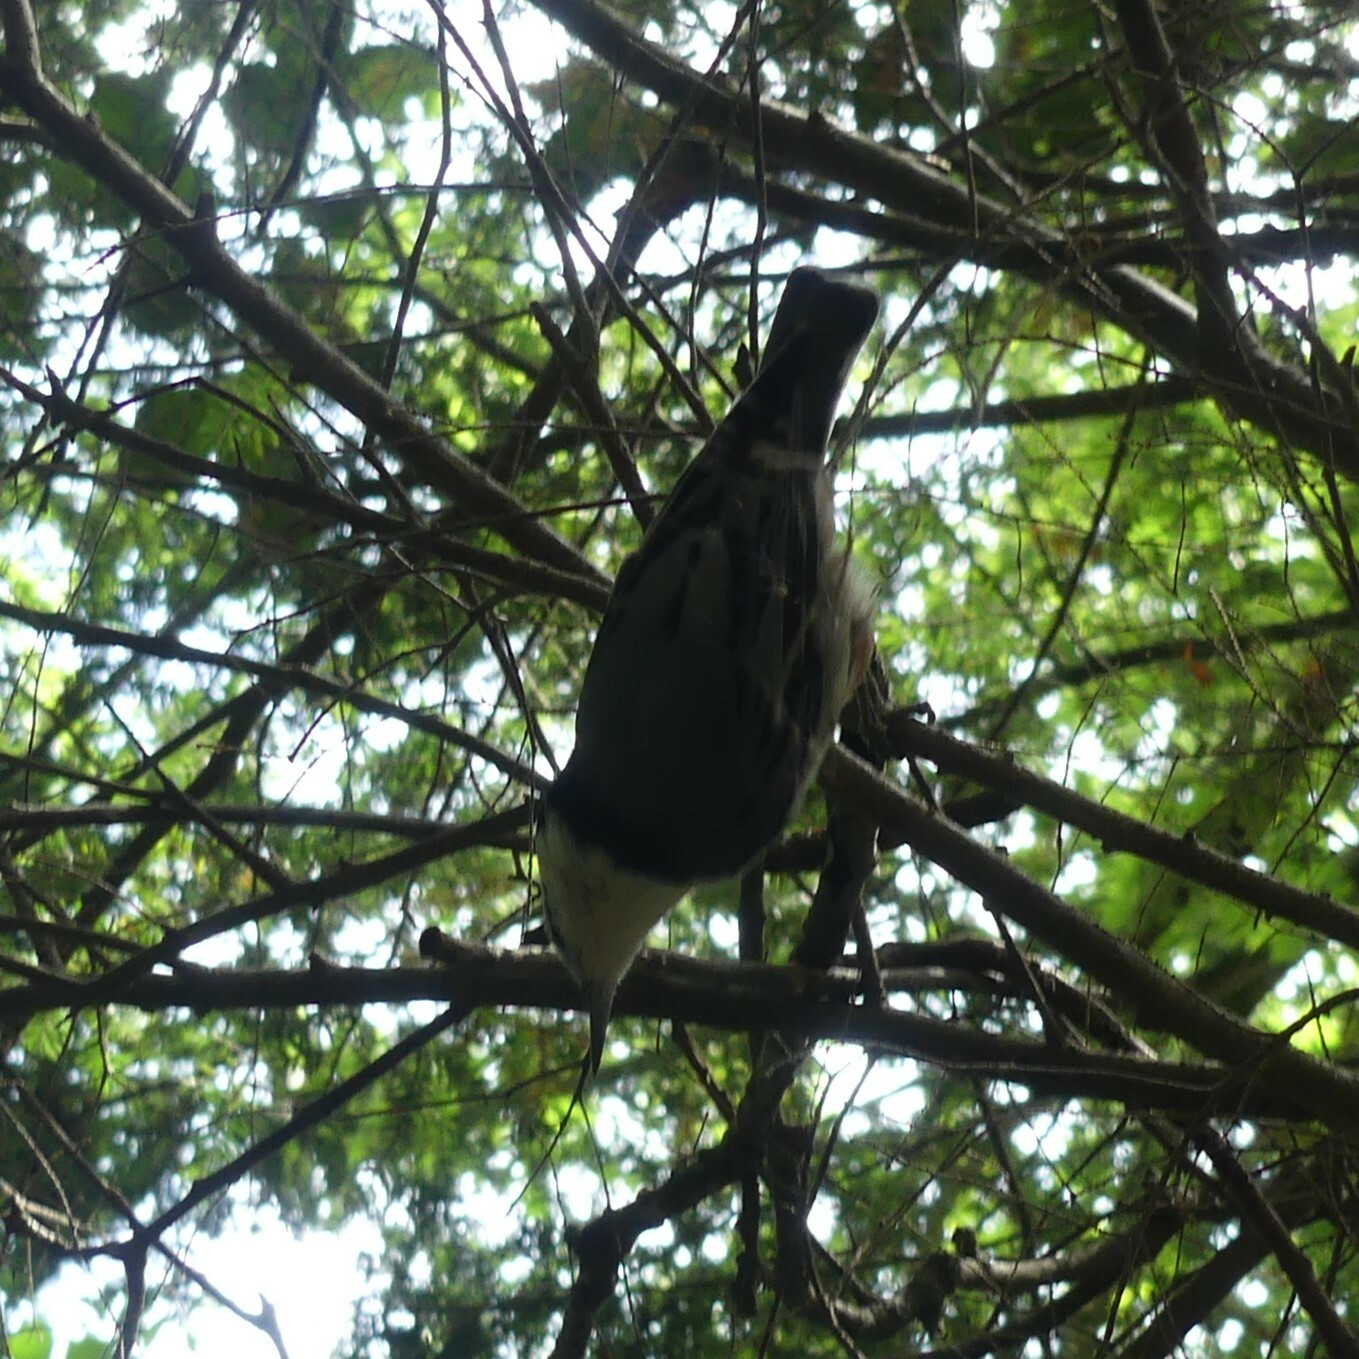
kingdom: Animalia
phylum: Chordata
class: Aves
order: Passeriformes
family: Sittidae
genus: Sitta
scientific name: Sitta carolinensis
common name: White-breasted nuthatch
